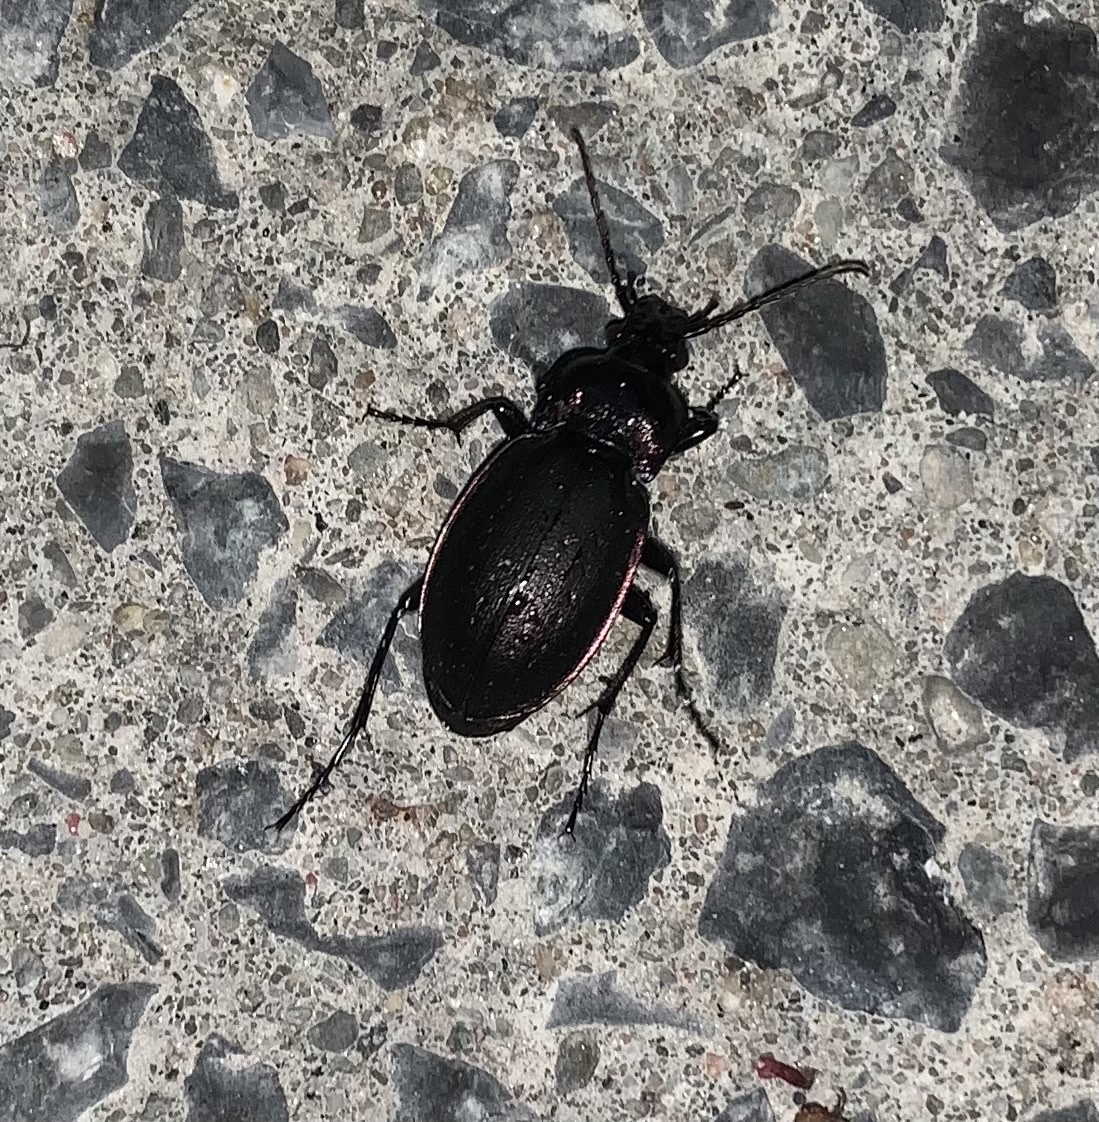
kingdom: Animalia
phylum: Arthropoda
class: Insecta
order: Coleoptera
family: Carabidae
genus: Carabus
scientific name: Carabus nemoralis
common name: European ground beetle
